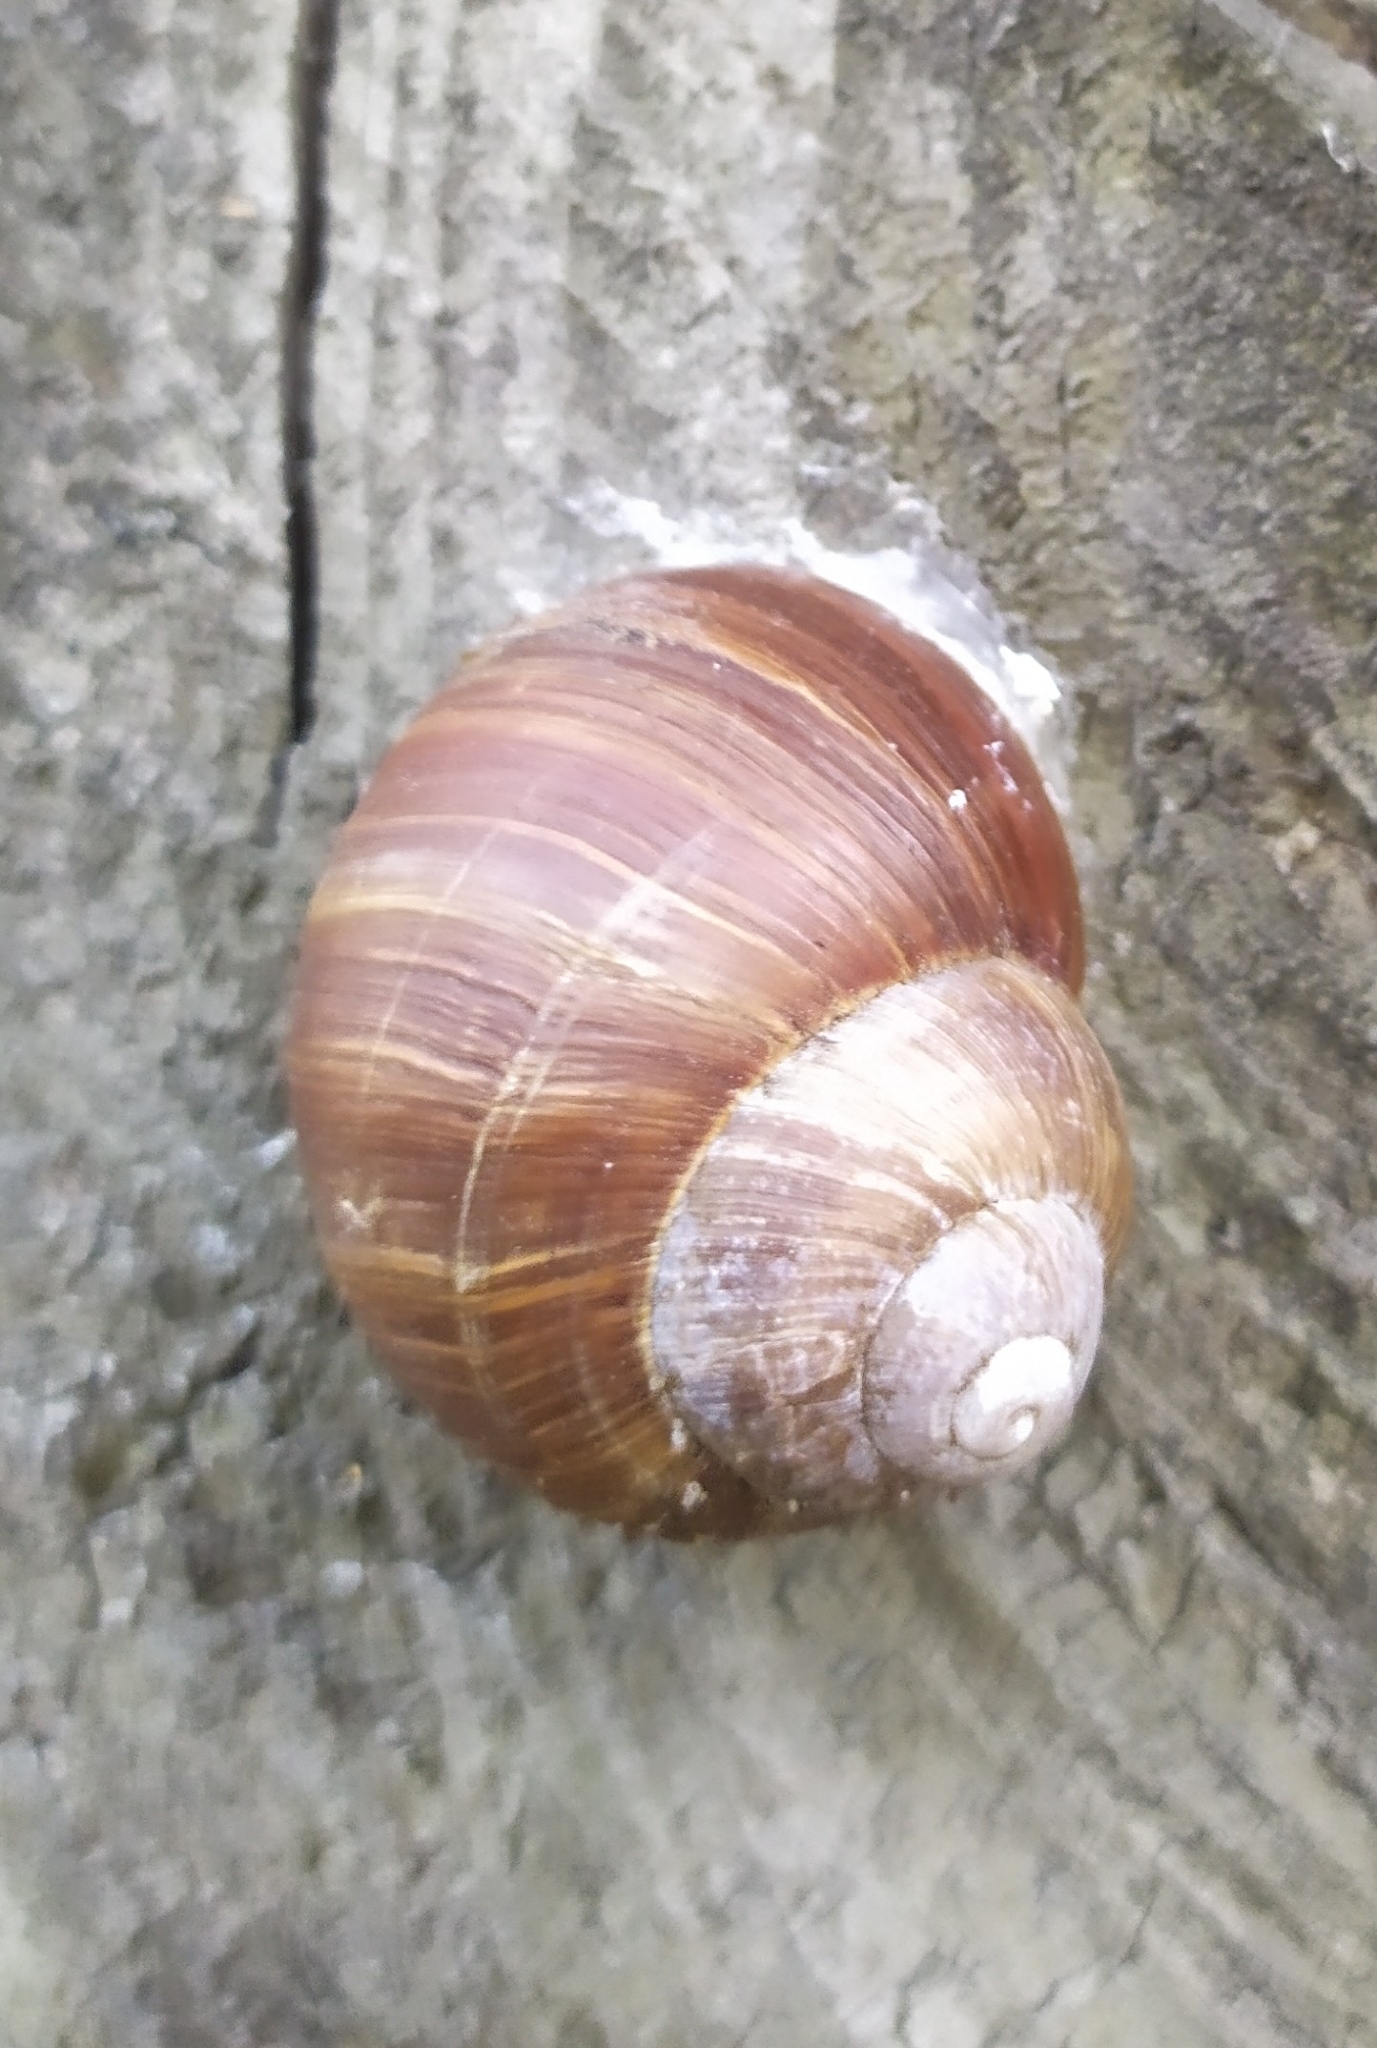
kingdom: Animalia
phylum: Mollusca
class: Gastropoda
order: Stylommatophora
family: Helicidae
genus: Helix
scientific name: Helix pomatia
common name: Roman snail
